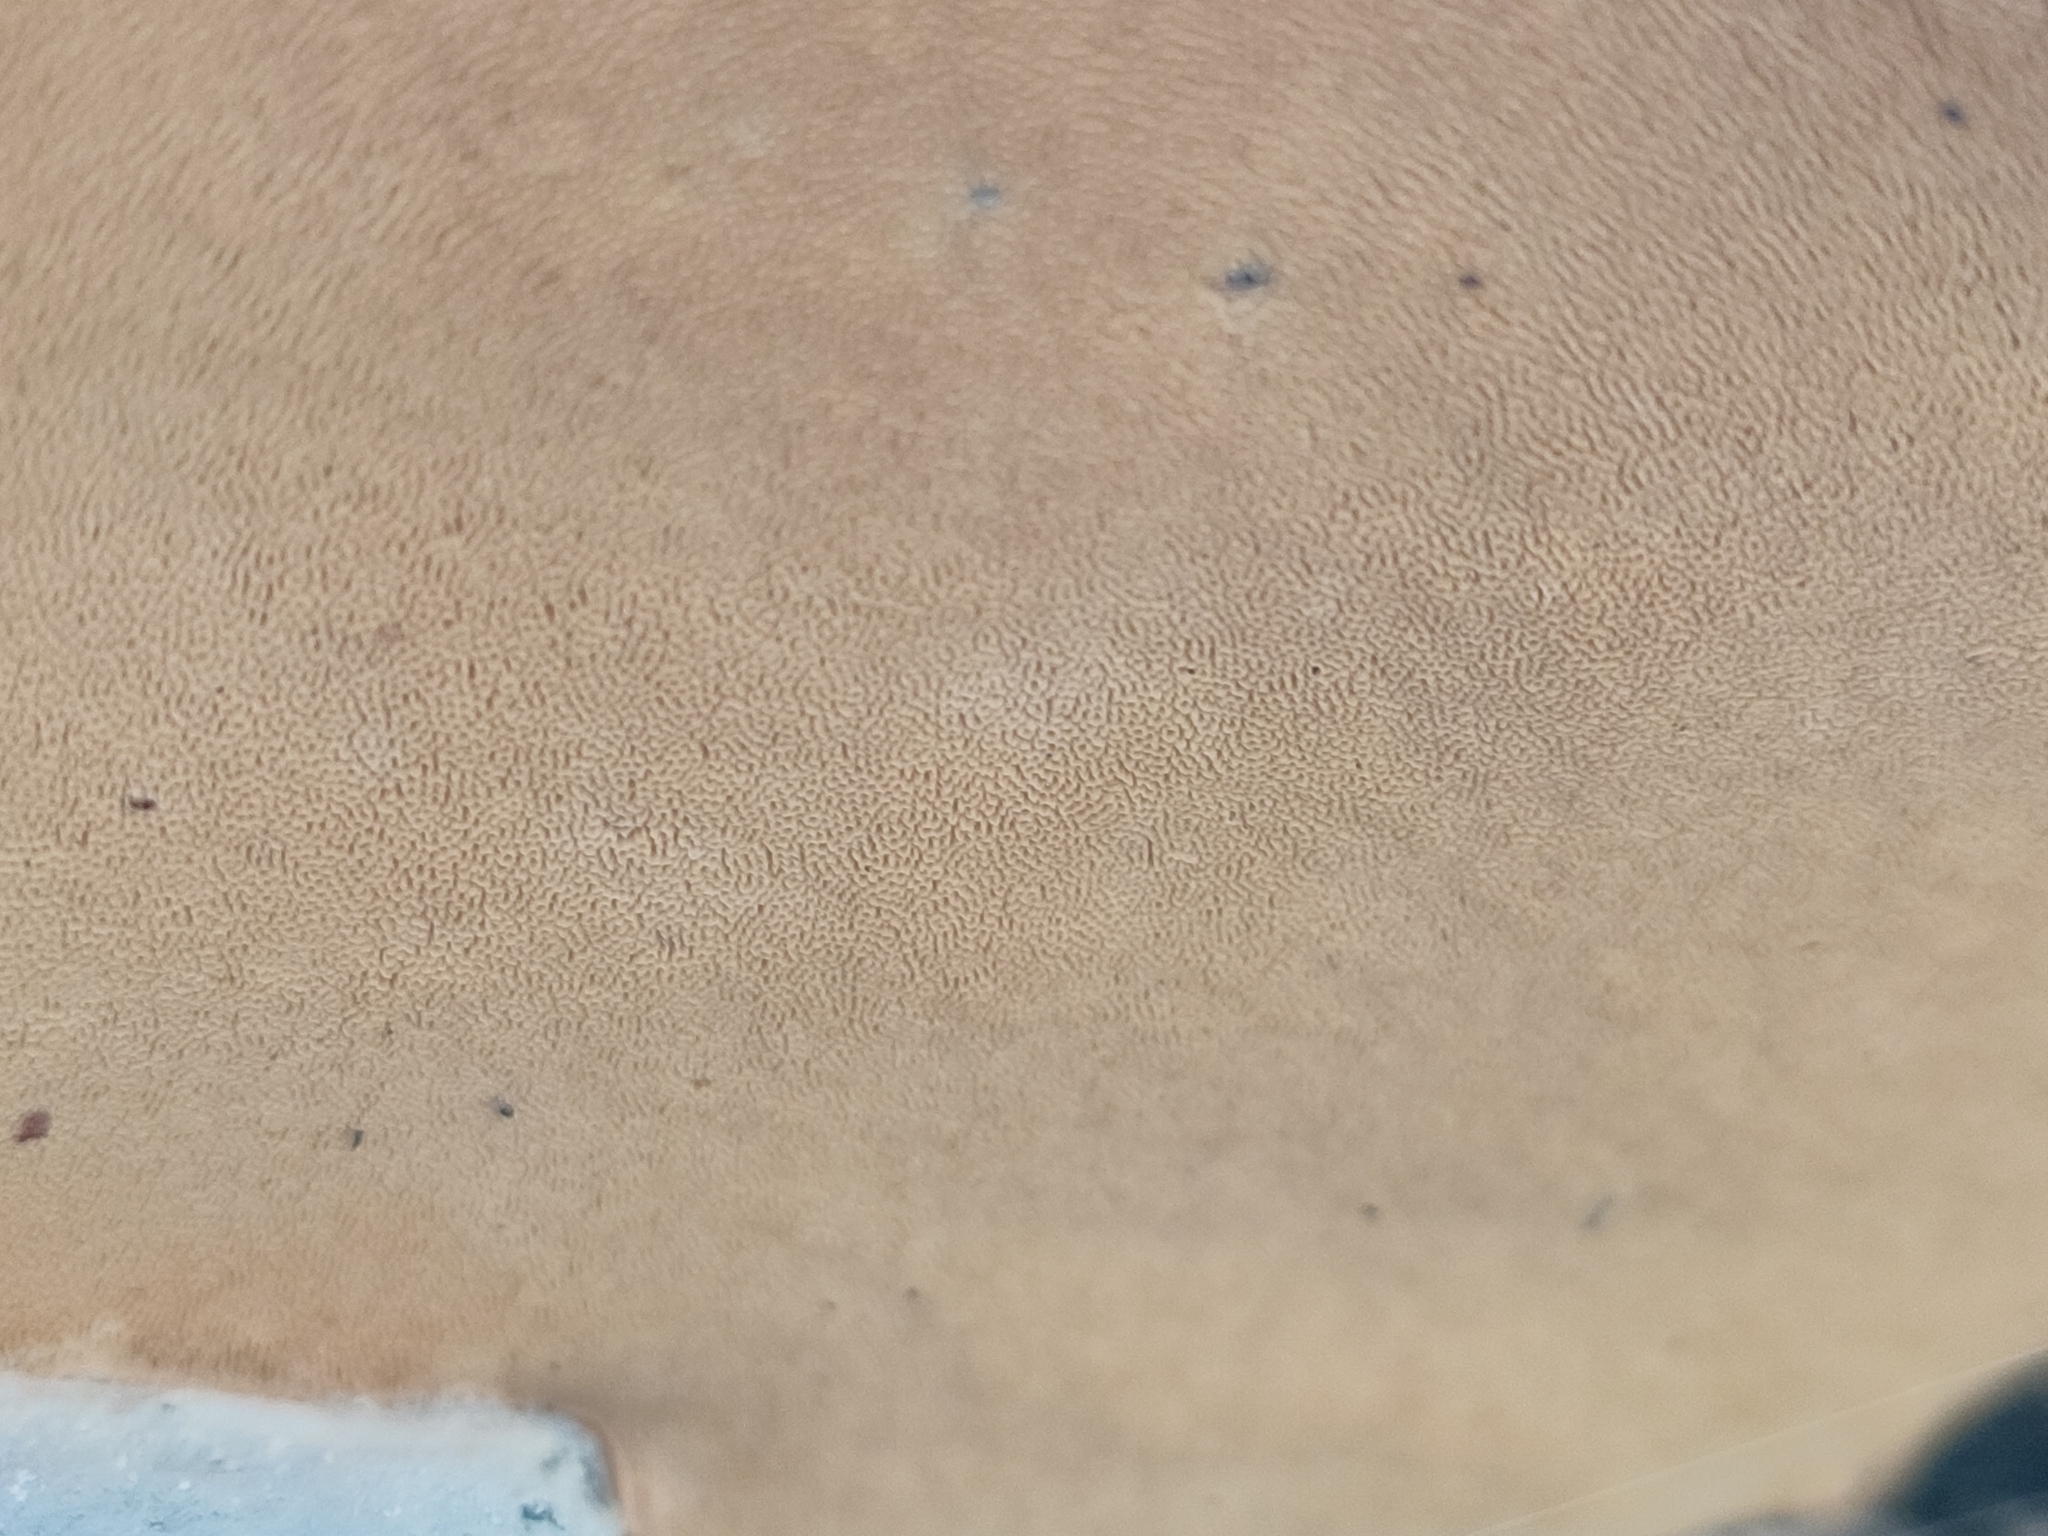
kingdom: Fungi
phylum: Basidiomycota
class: Agaricomycetes
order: Polyporales
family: Fomitopsidaceae
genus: Fomitopsis
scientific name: Fomitopsis pinicola
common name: Red-belted bracket
